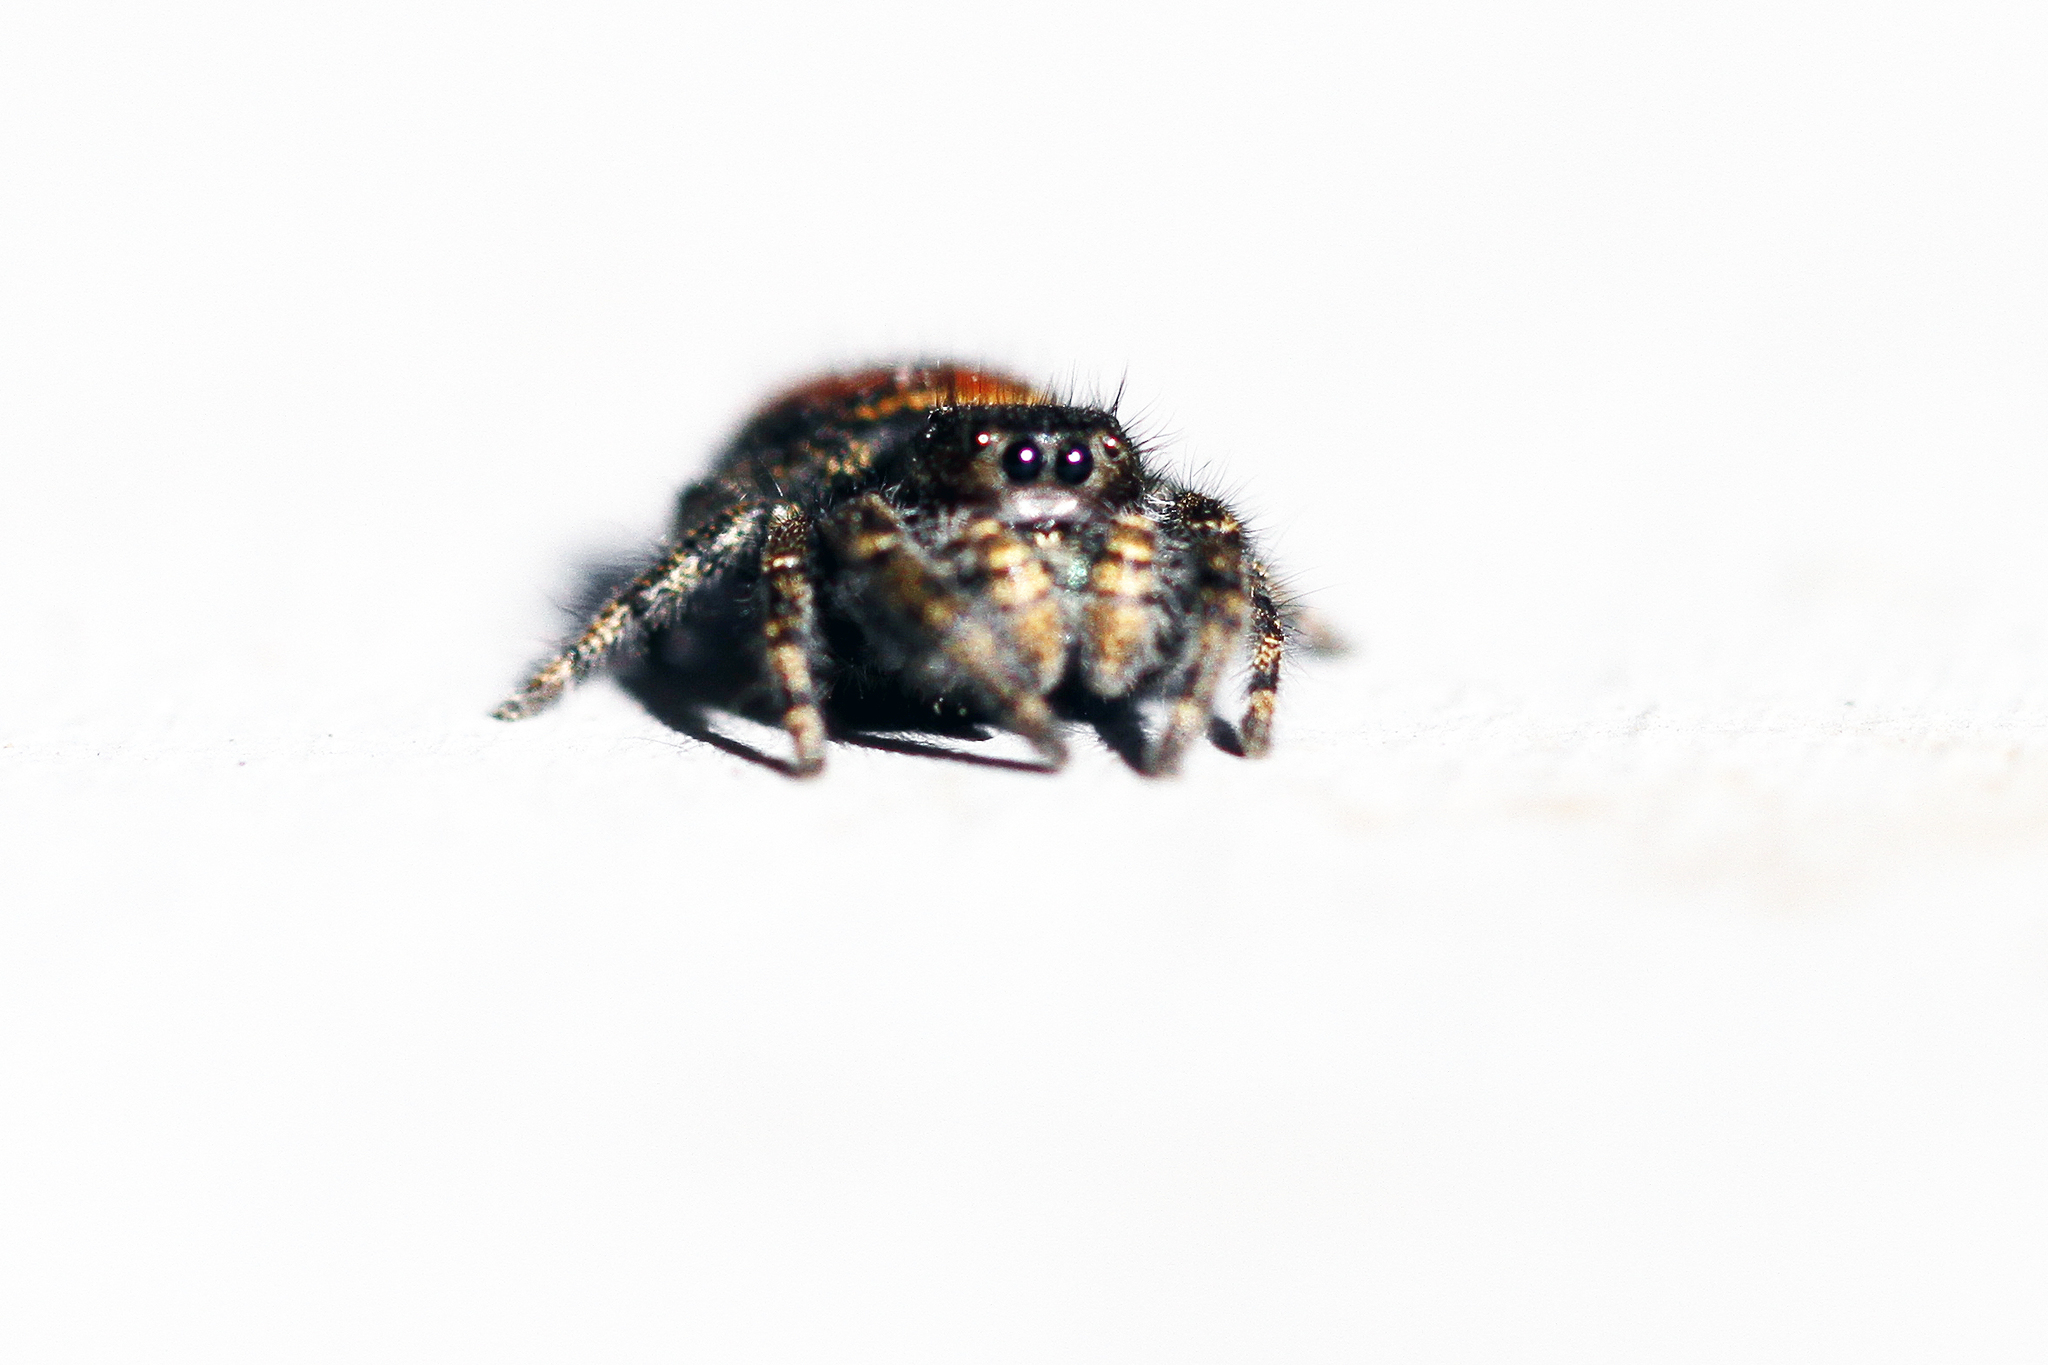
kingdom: Animalia
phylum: Arthropoda
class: Arachnida
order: Araneae
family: Salticidae
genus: Phidippus
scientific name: Phidippus johnsoni
